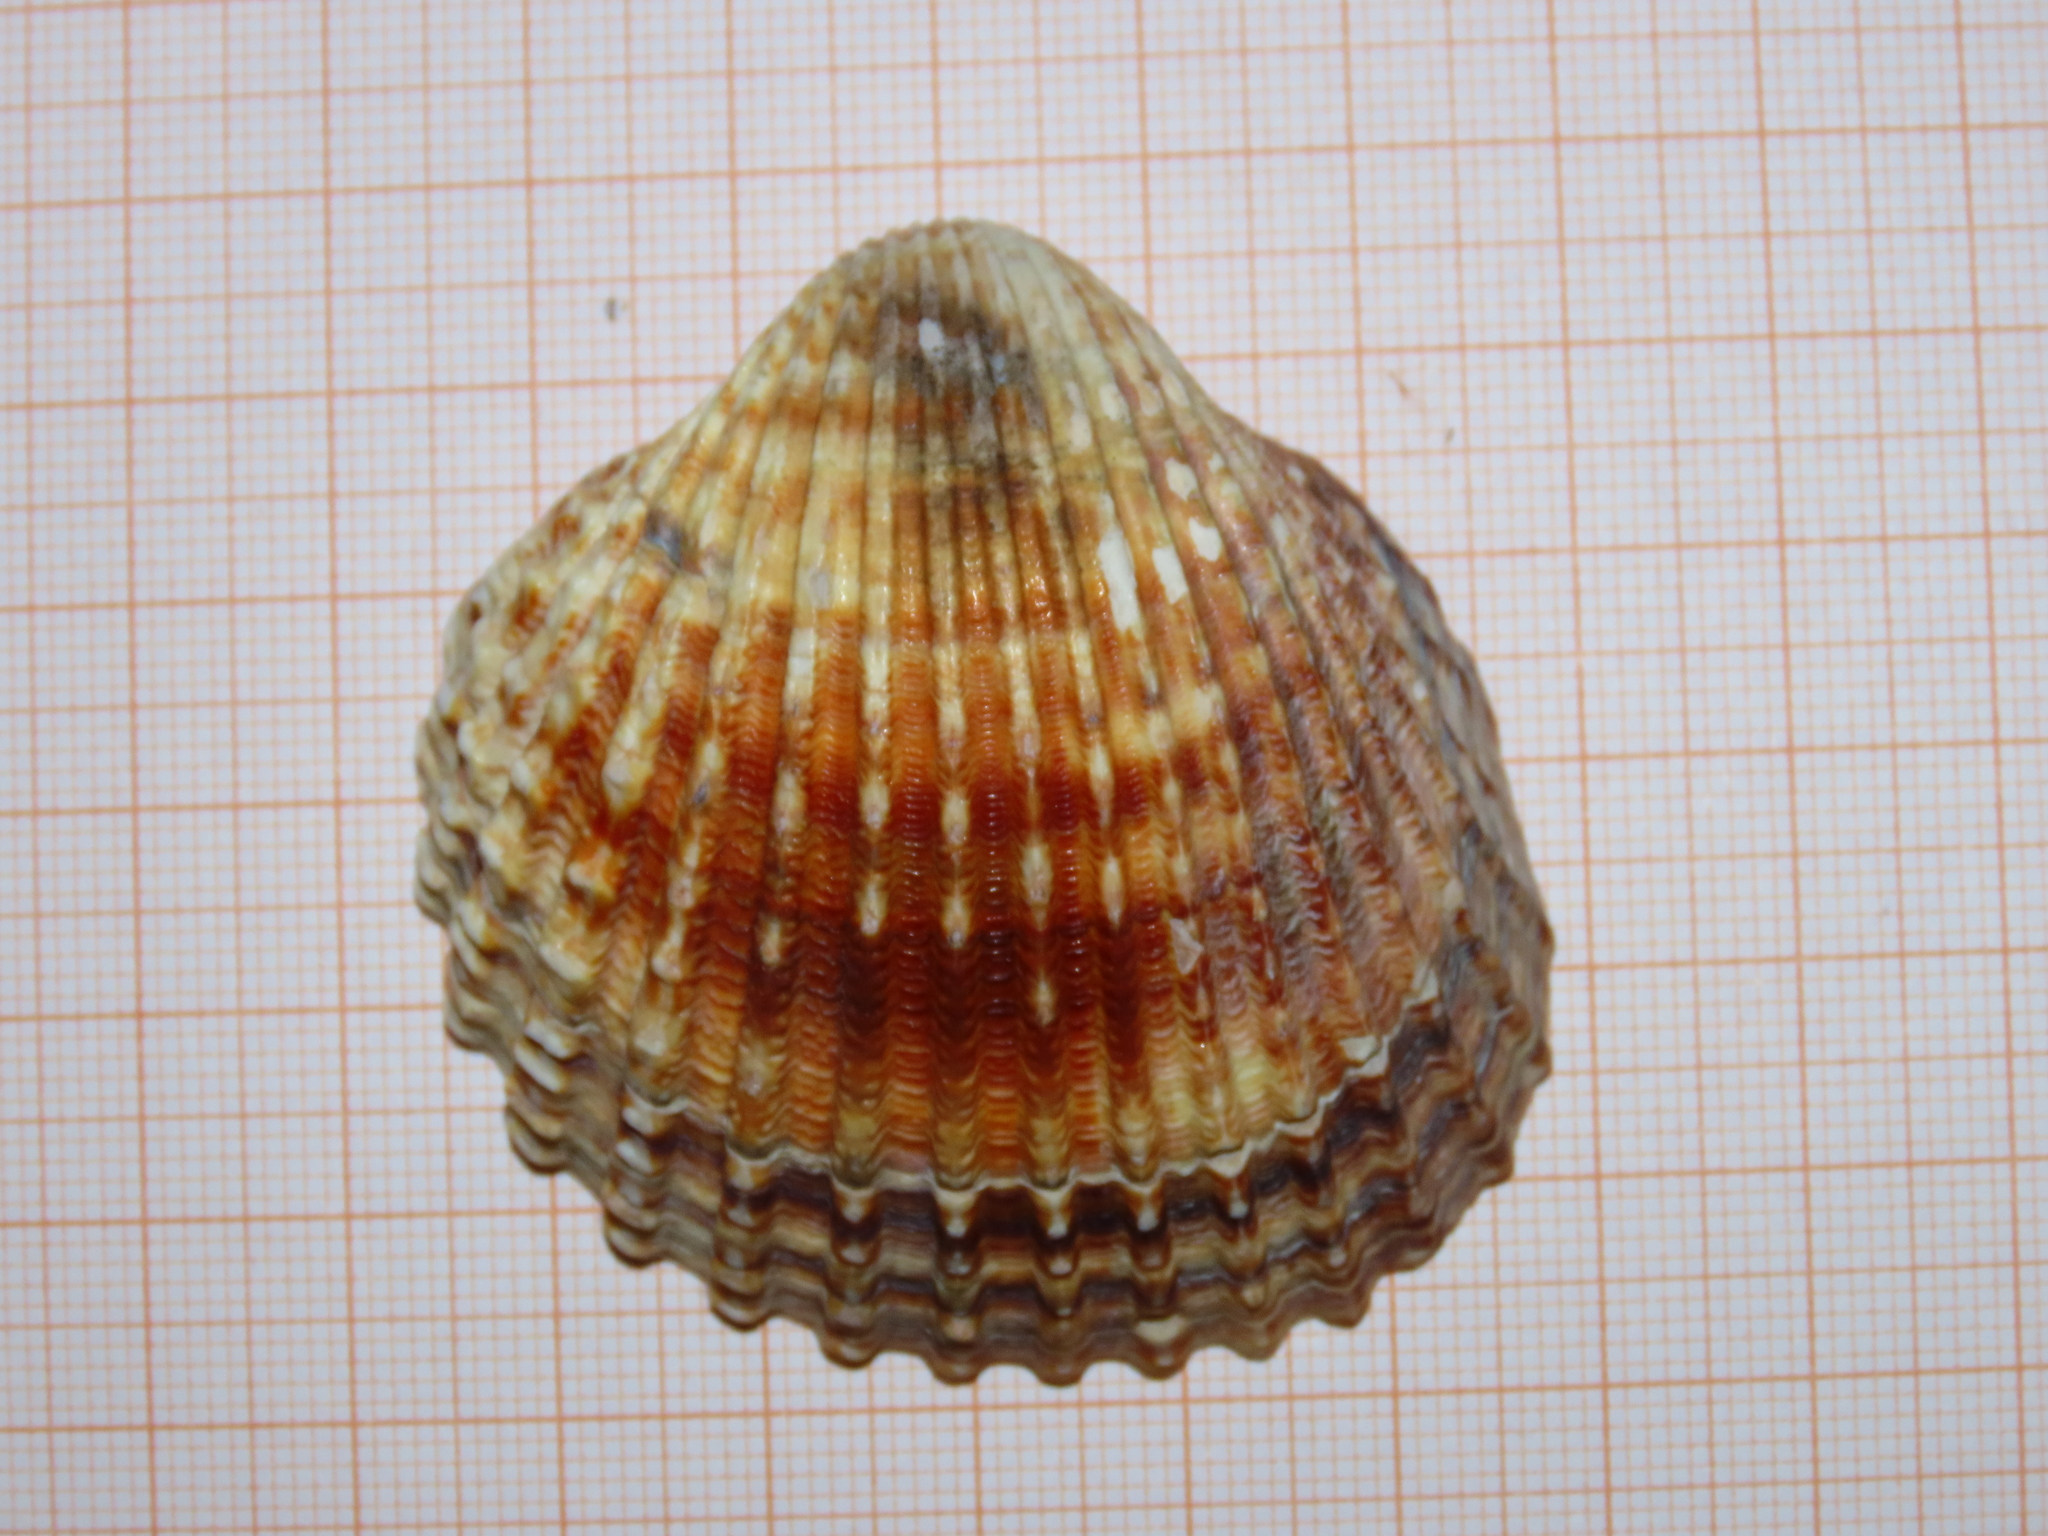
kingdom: Animalia
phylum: Mollusca
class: Bivalvia
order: Cardiida
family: Cardiidae
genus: Acanthocardia
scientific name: Acanthocardia tuberculata
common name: Rough cockle
